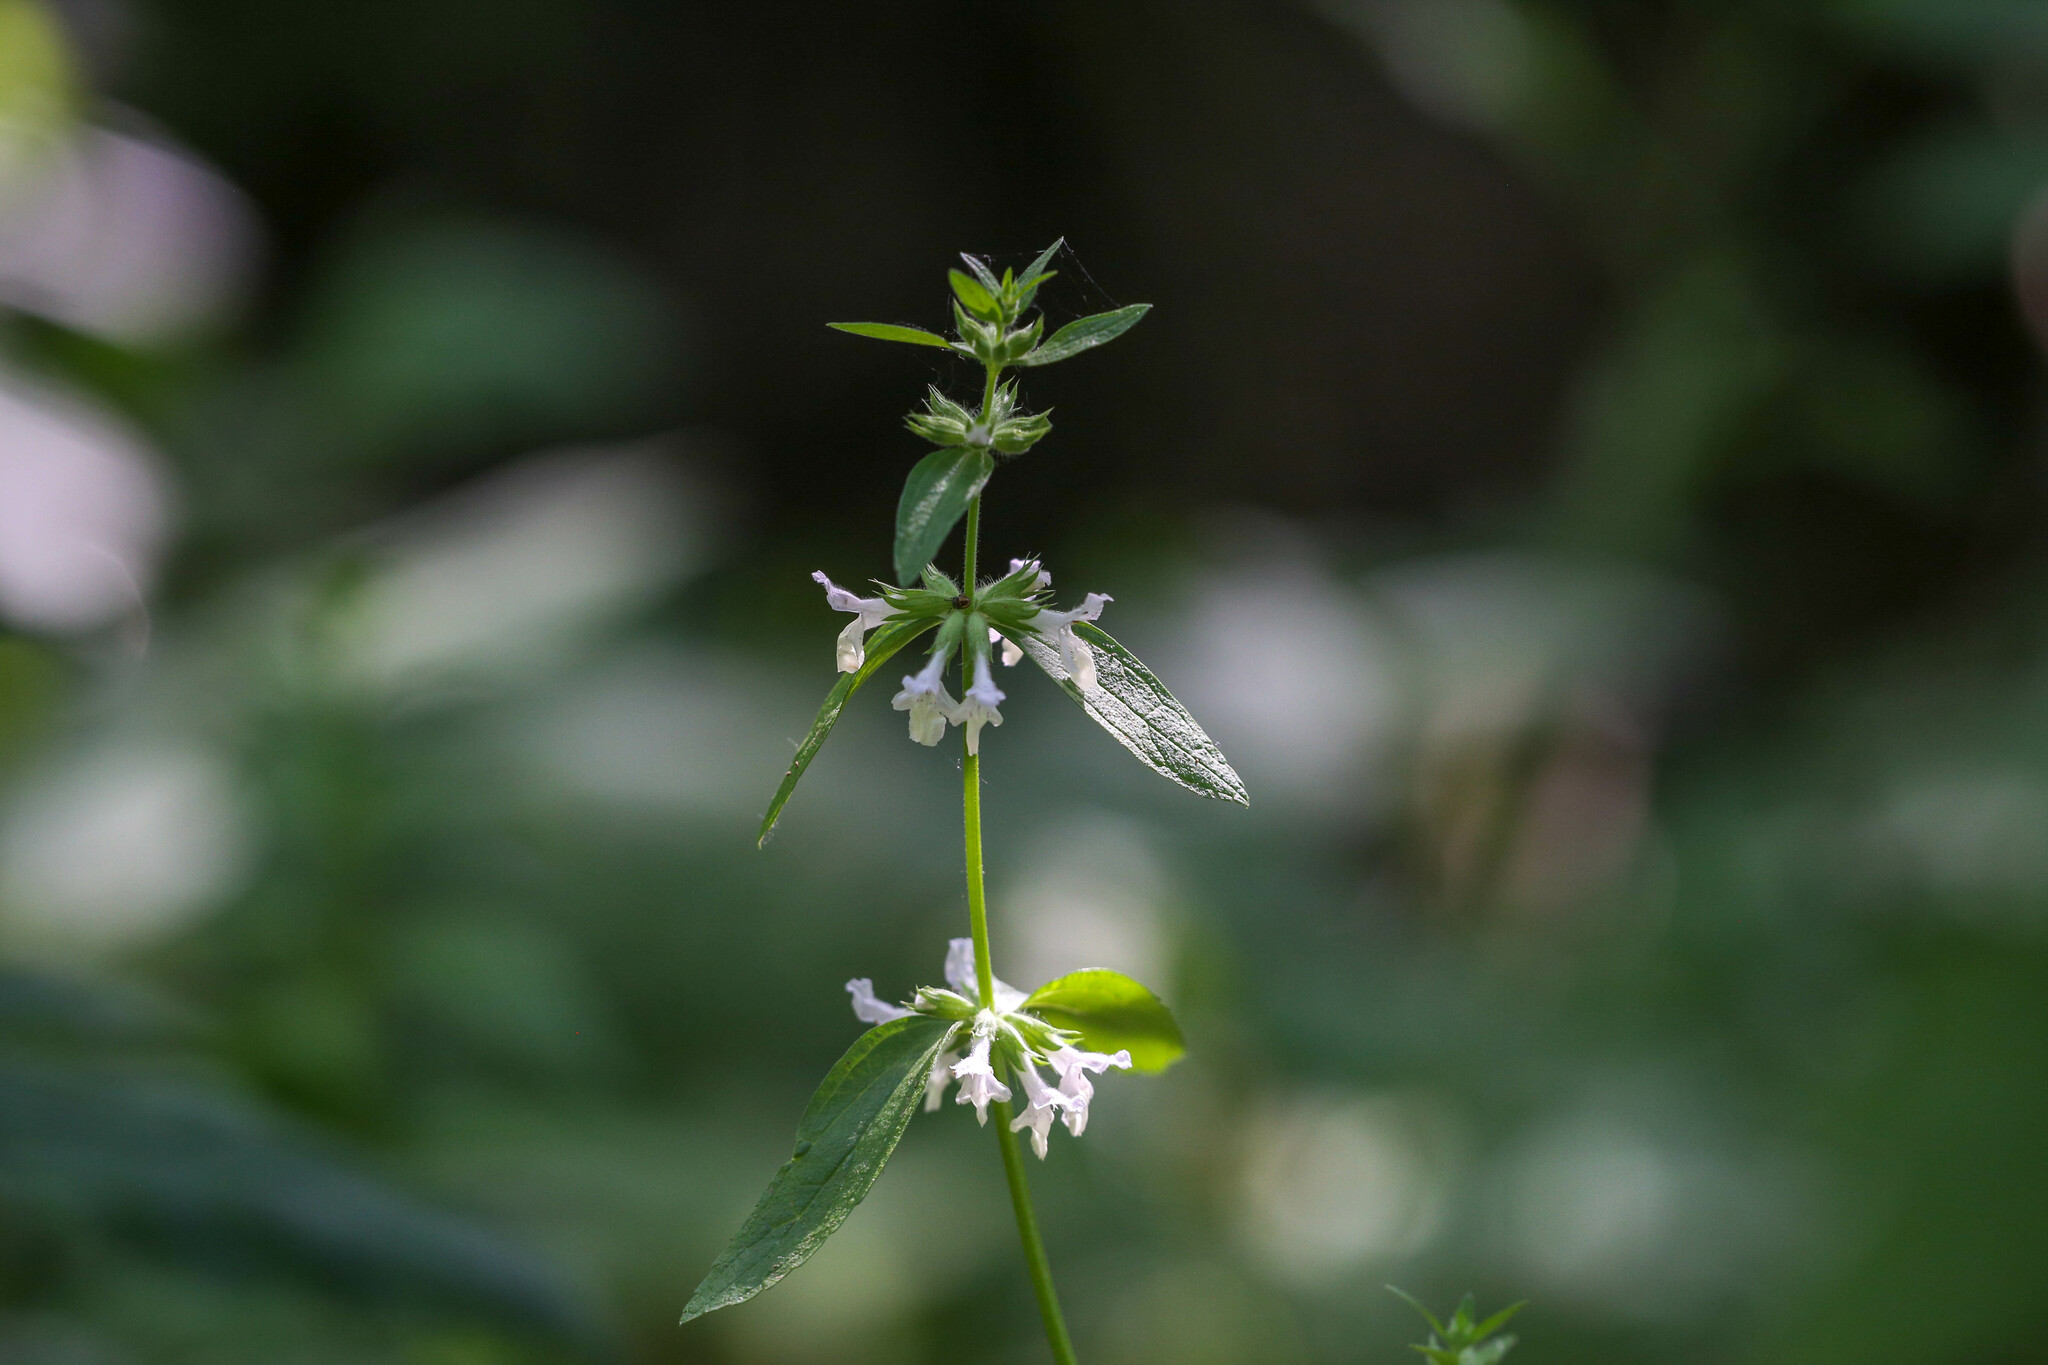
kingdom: Plantae
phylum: Tracheophyta
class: Magnoliopsida
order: Lamiales
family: Lamiaceae
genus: Stachys
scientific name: Stachys annua
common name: Annual yellow-woundwort
